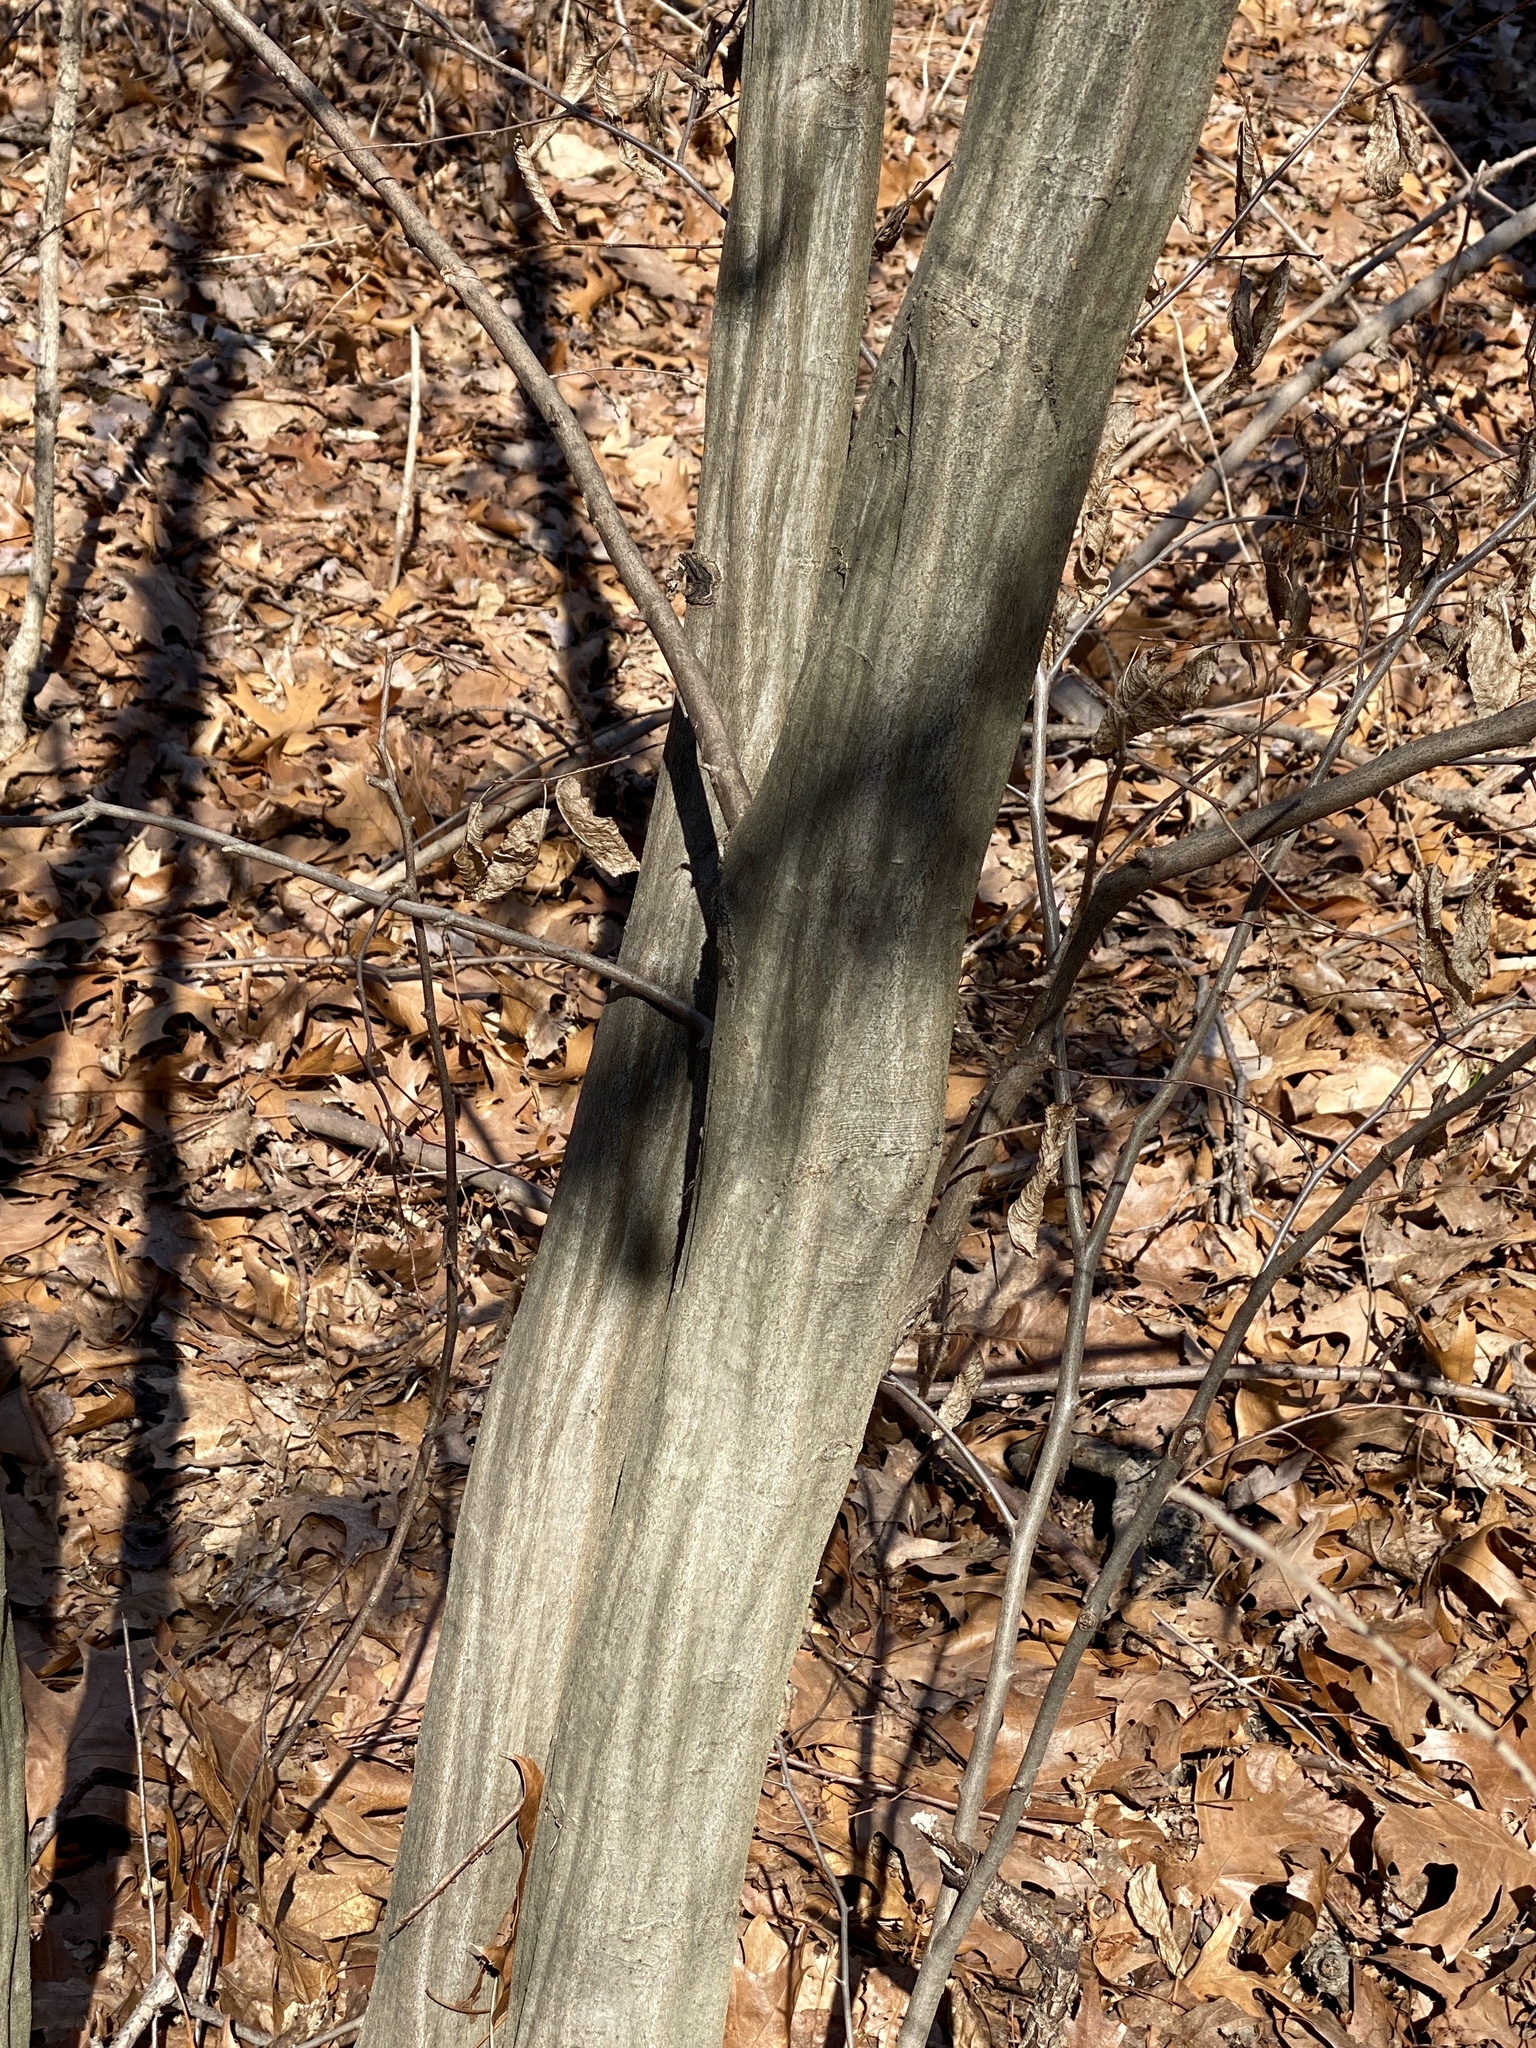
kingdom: Plantae
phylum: Tracheophyta
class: Magnoliopsida
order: Fagales
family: Betulaceae
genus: Carpinus
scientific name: Carpinus caroliniana
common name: American hornbeam
